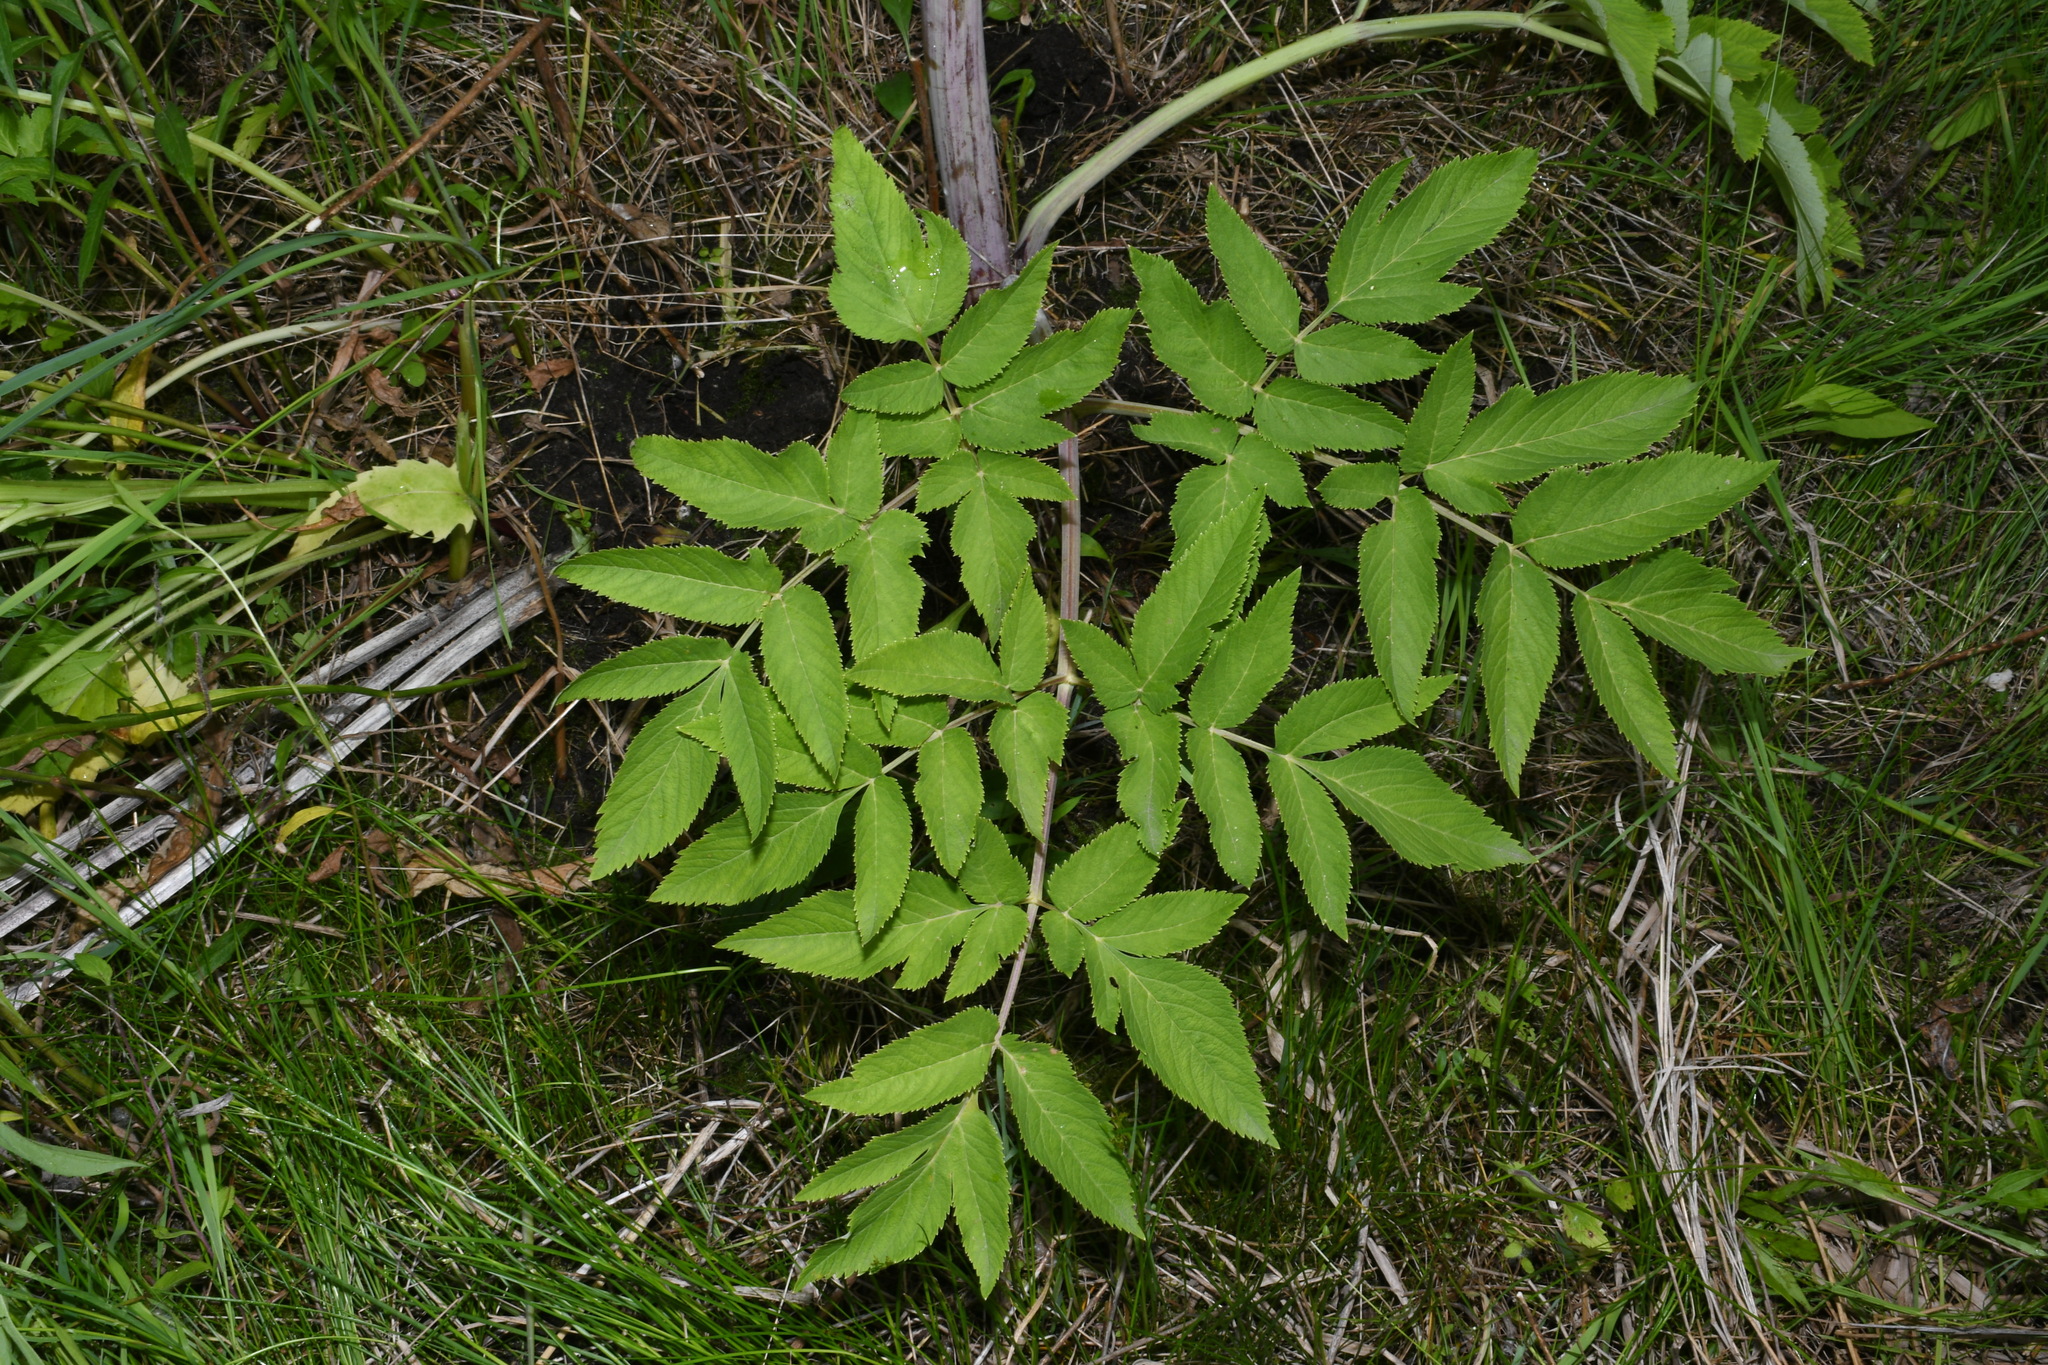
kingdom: Plantae
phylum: Tracheophyta
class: Magnoliopsida
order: Apiales
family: Apiaceae
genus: Angelica
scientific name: Angelica atropurpurea
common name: Great angelica
